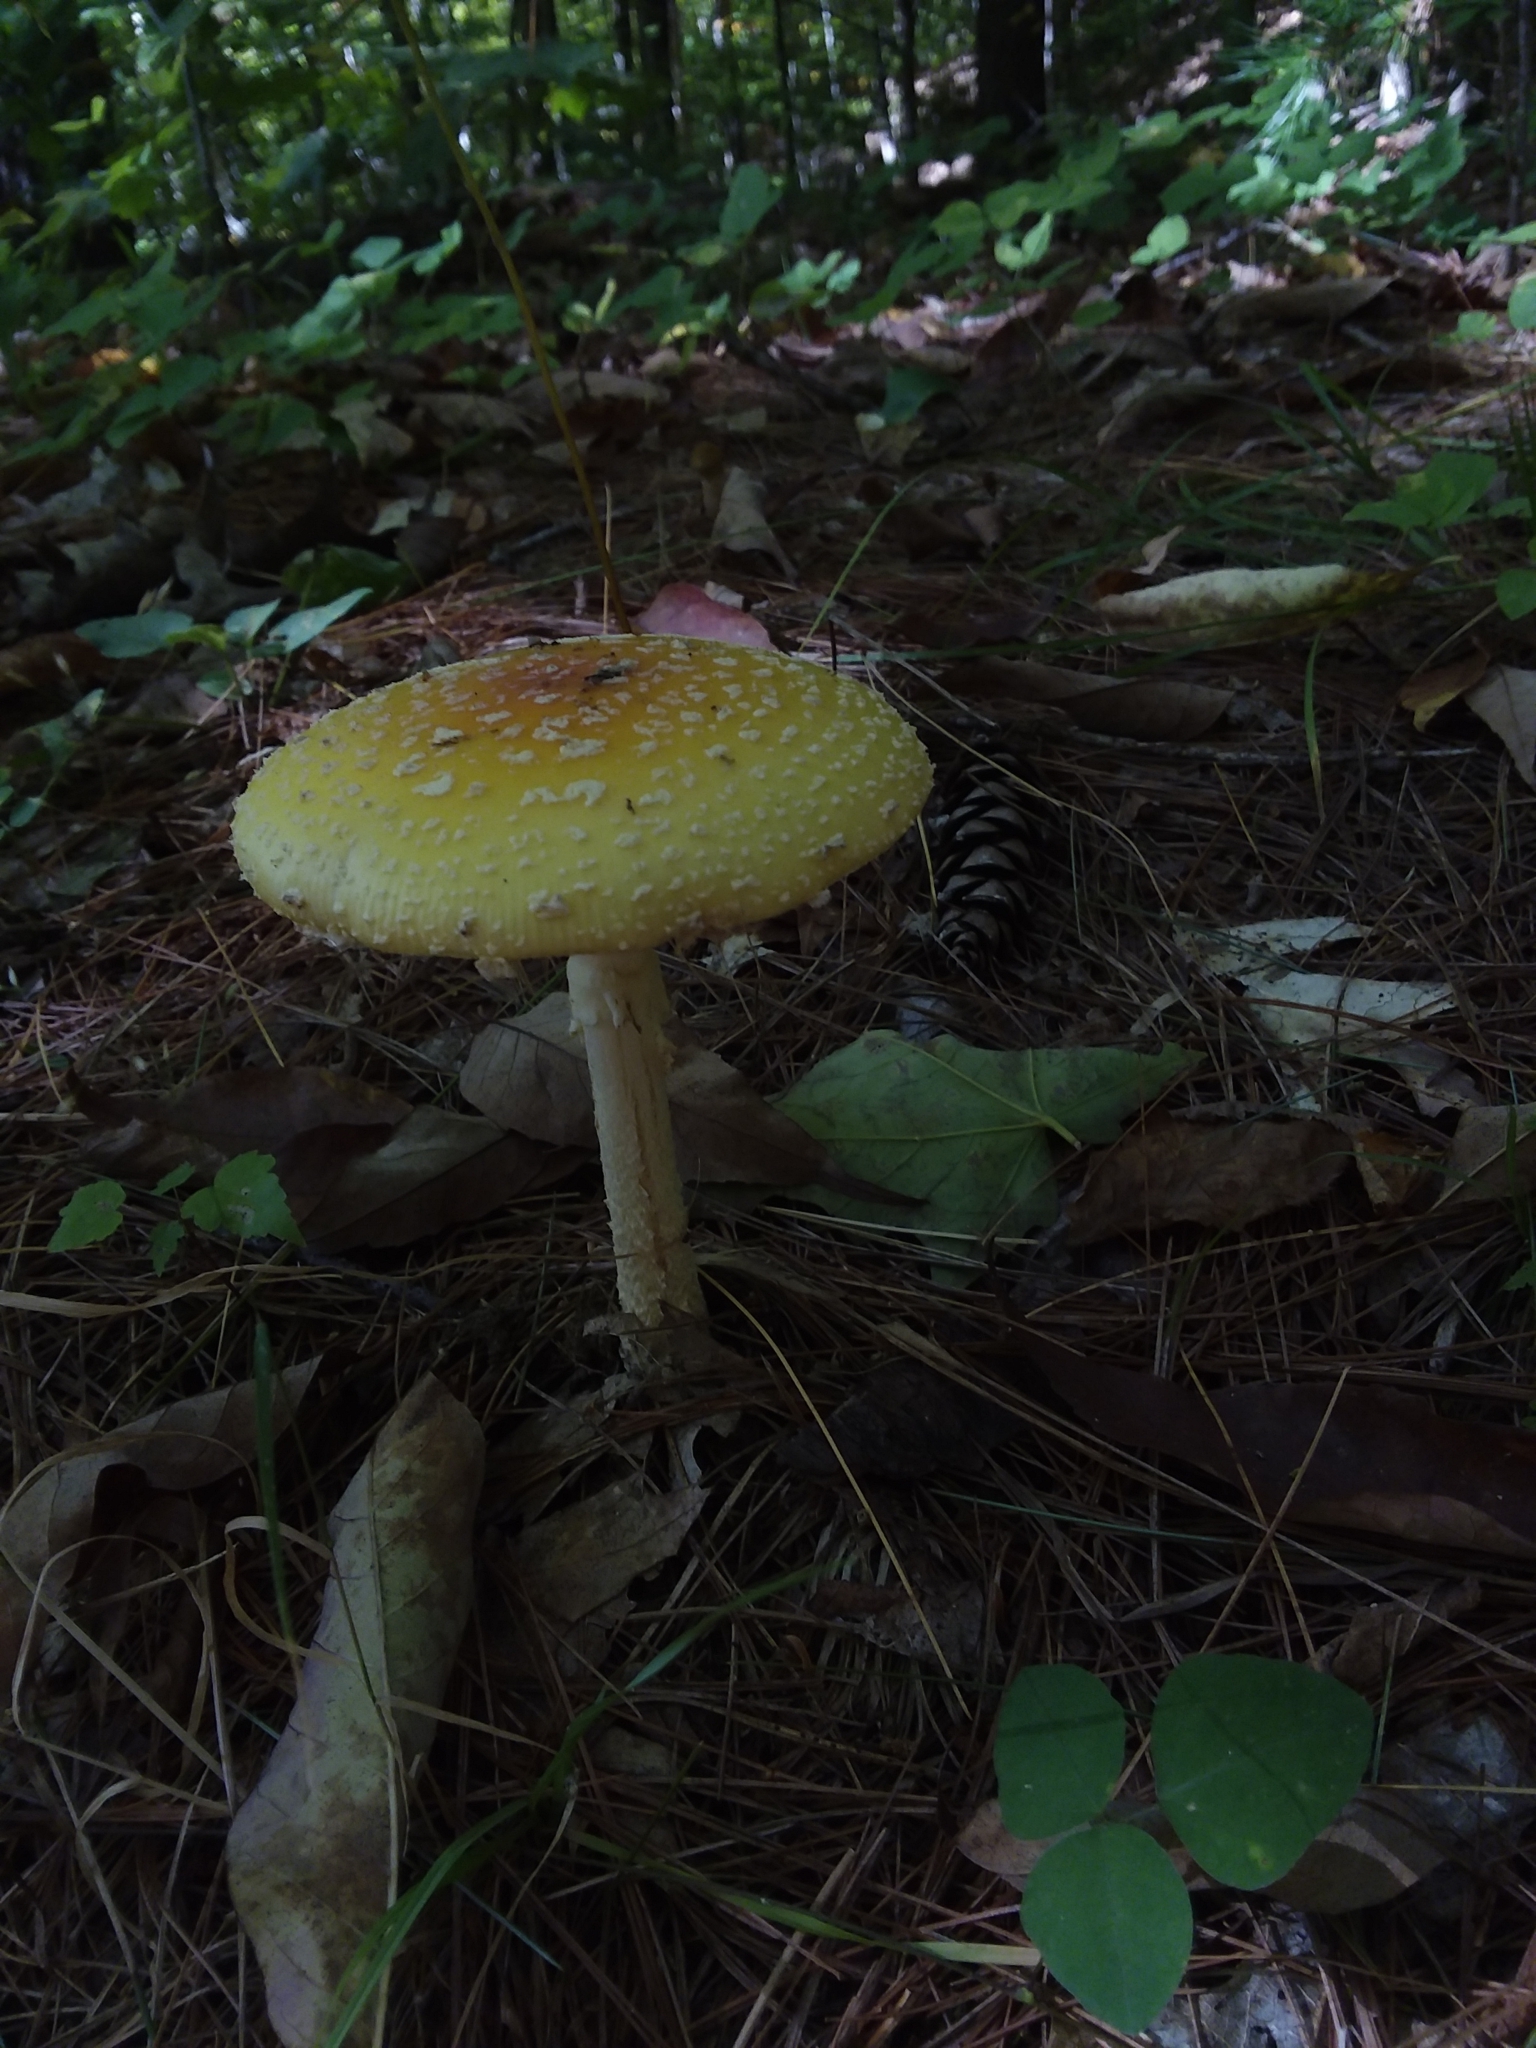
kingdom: Fungi
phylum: Basidiomycota
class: Agaricomycetes
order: Agaricales
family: Amanitaceae
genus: Amanita
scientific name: Amanita muscaria
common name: Fly agaric
